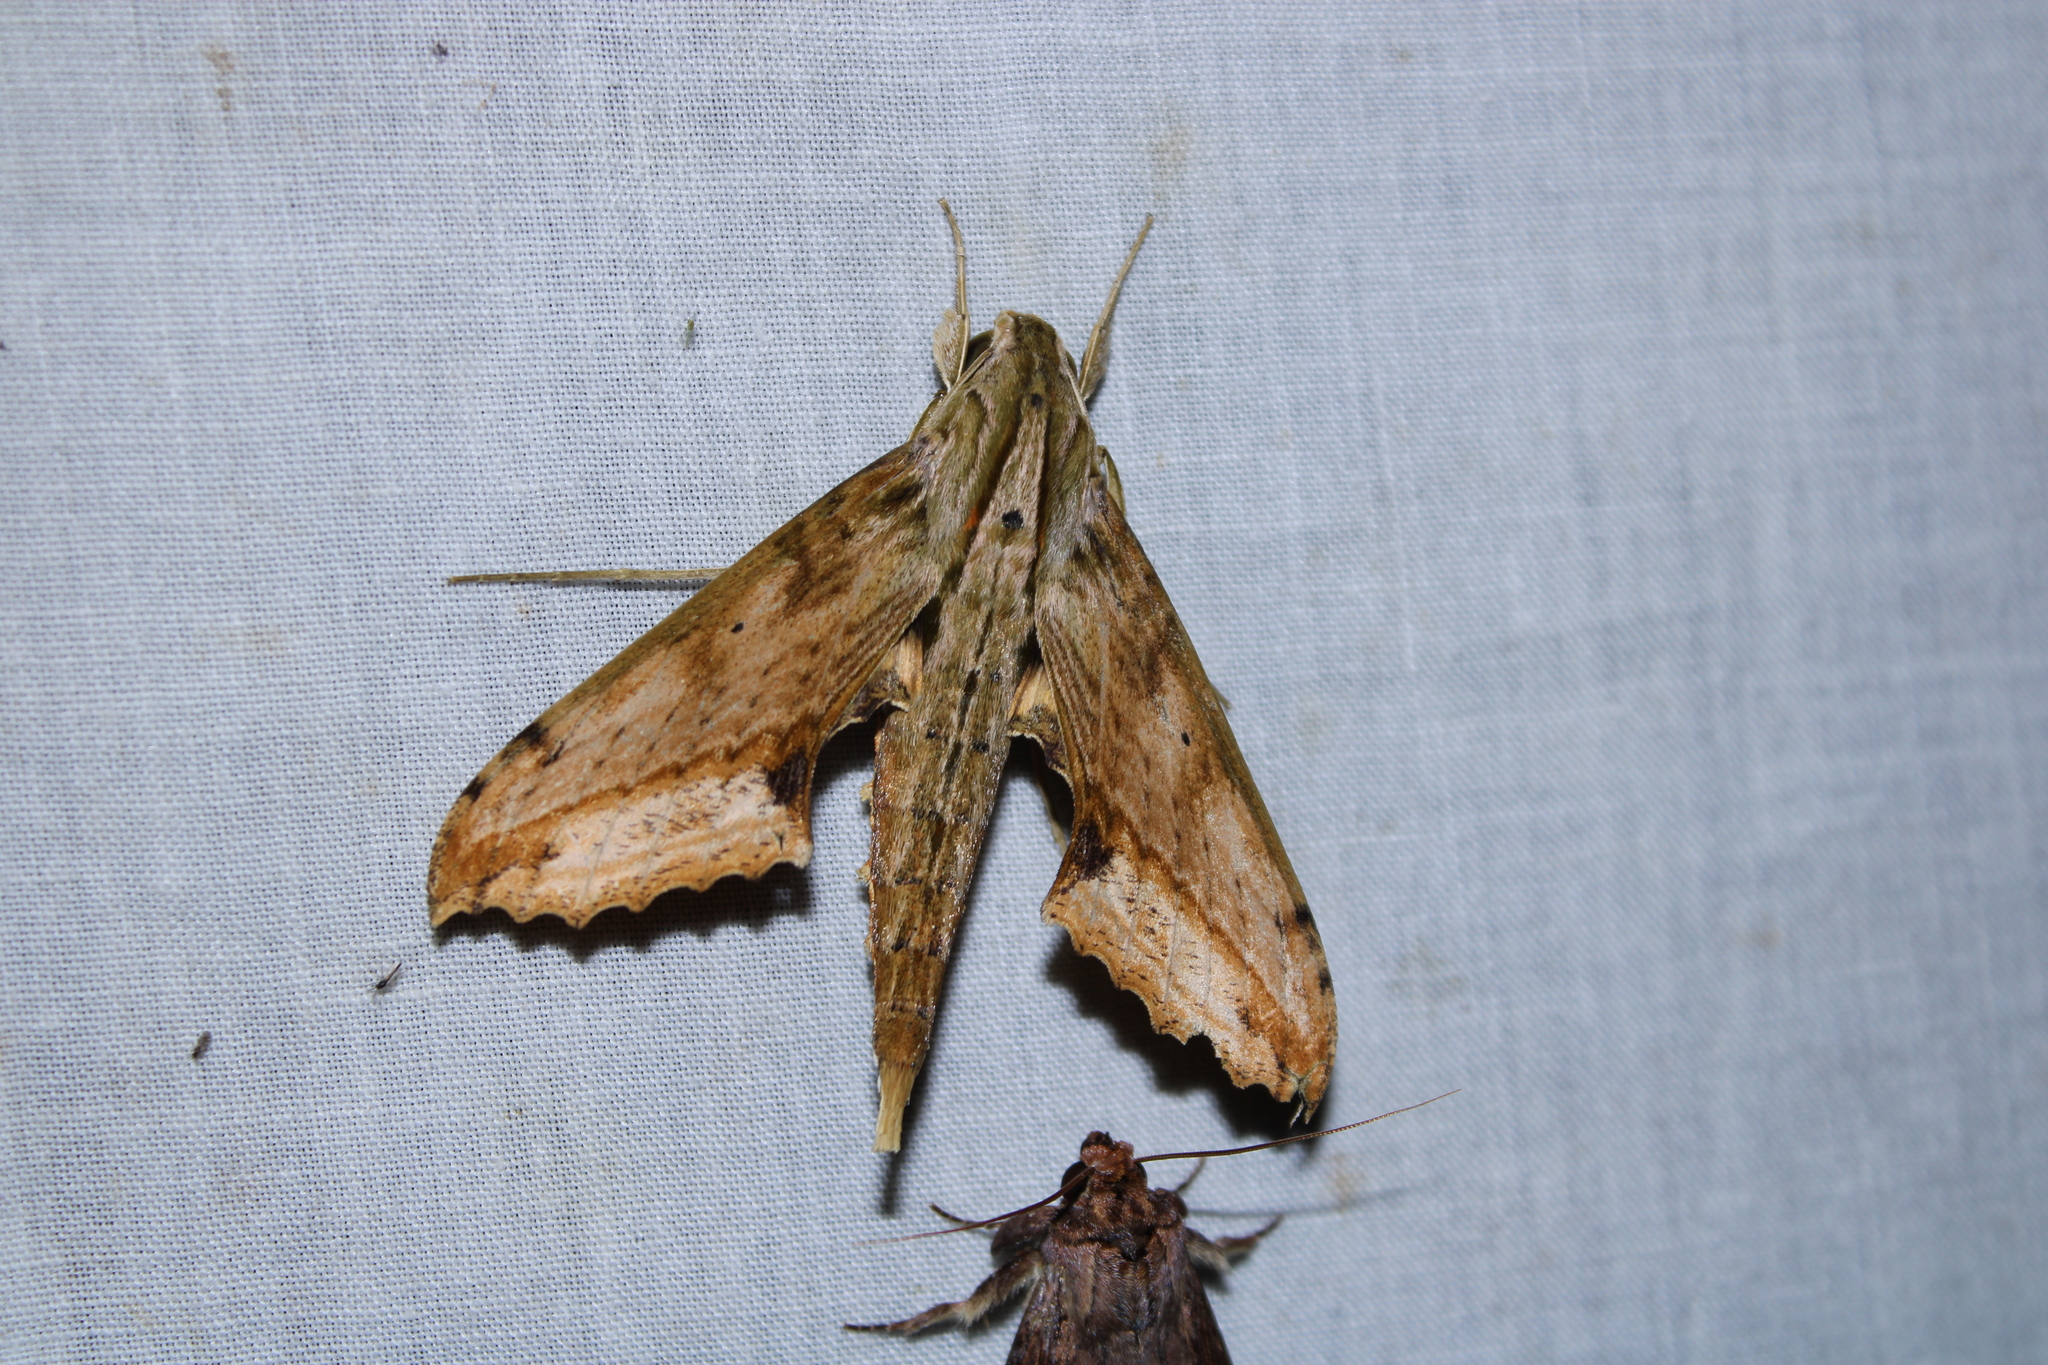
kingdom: Animalia
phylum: Arthropoda
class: Insecta
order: Lepidoptera
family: Sphingidae
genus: Xylophanes
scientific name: Xylophanes undata
